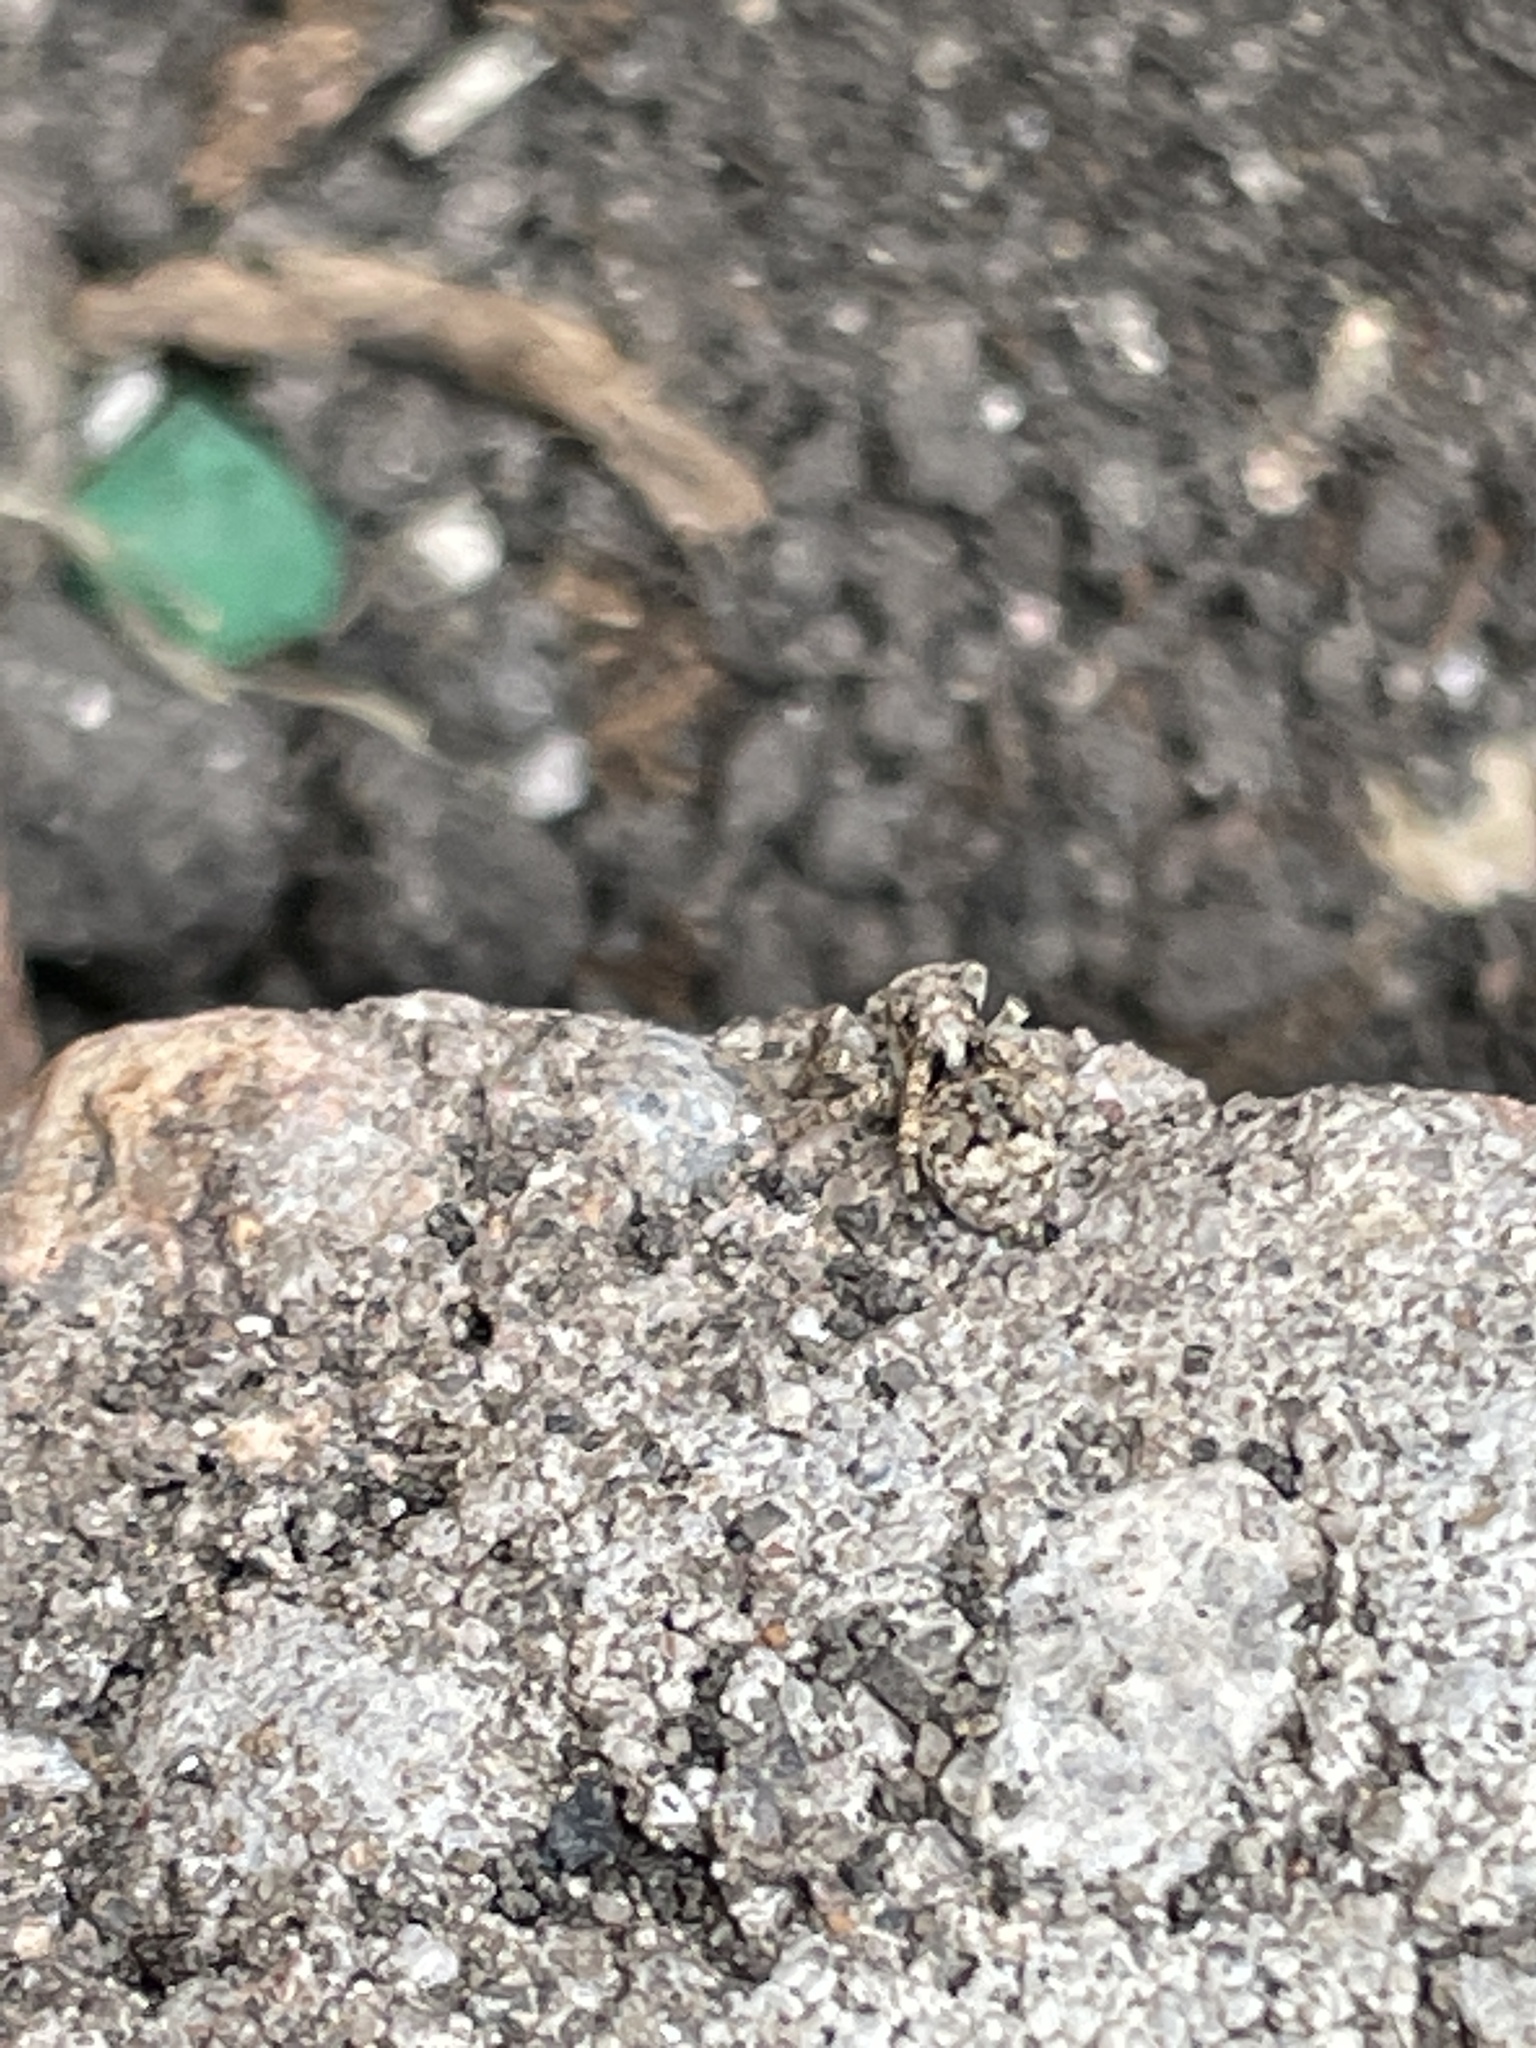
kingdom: Animalia
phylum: Arthropoda
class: Arachnida
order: Araneae
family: Salticidae
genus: Attulus
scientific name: Attulus fasciger
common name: Asiatic wall jumping spider
